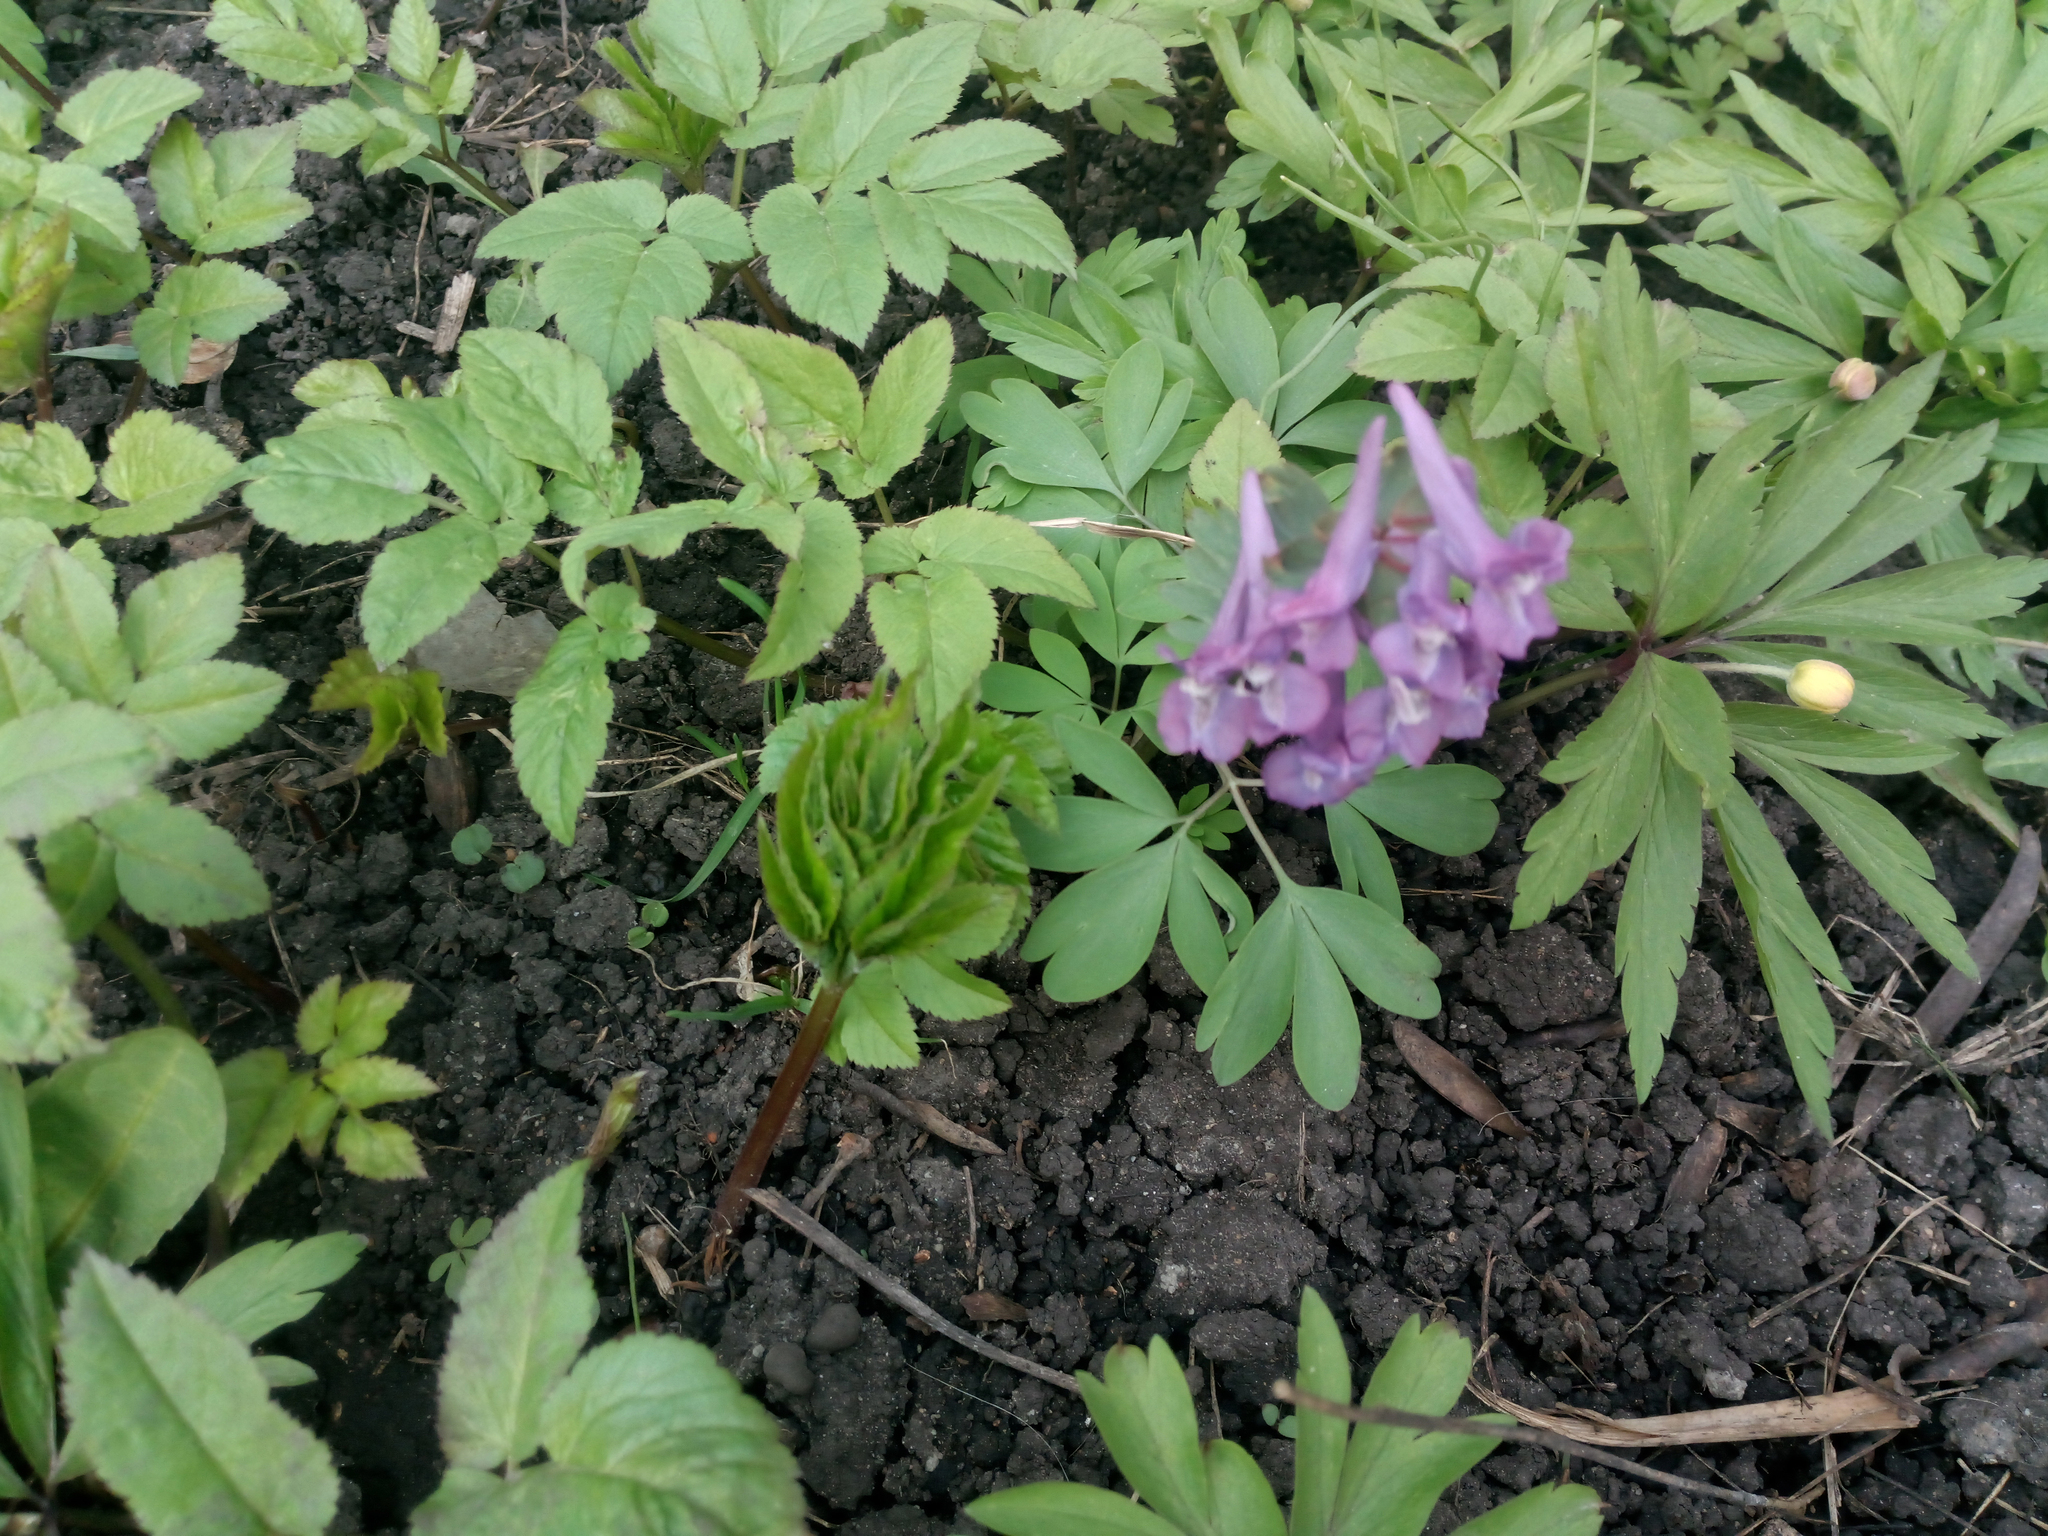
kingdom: Plantae
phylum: Tracheophyta
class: Magnoliopsida
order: Ranunculales
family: Papaveraceae
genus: Corydalis
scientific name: Corydalis solida
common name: Bird-in-a-bush
